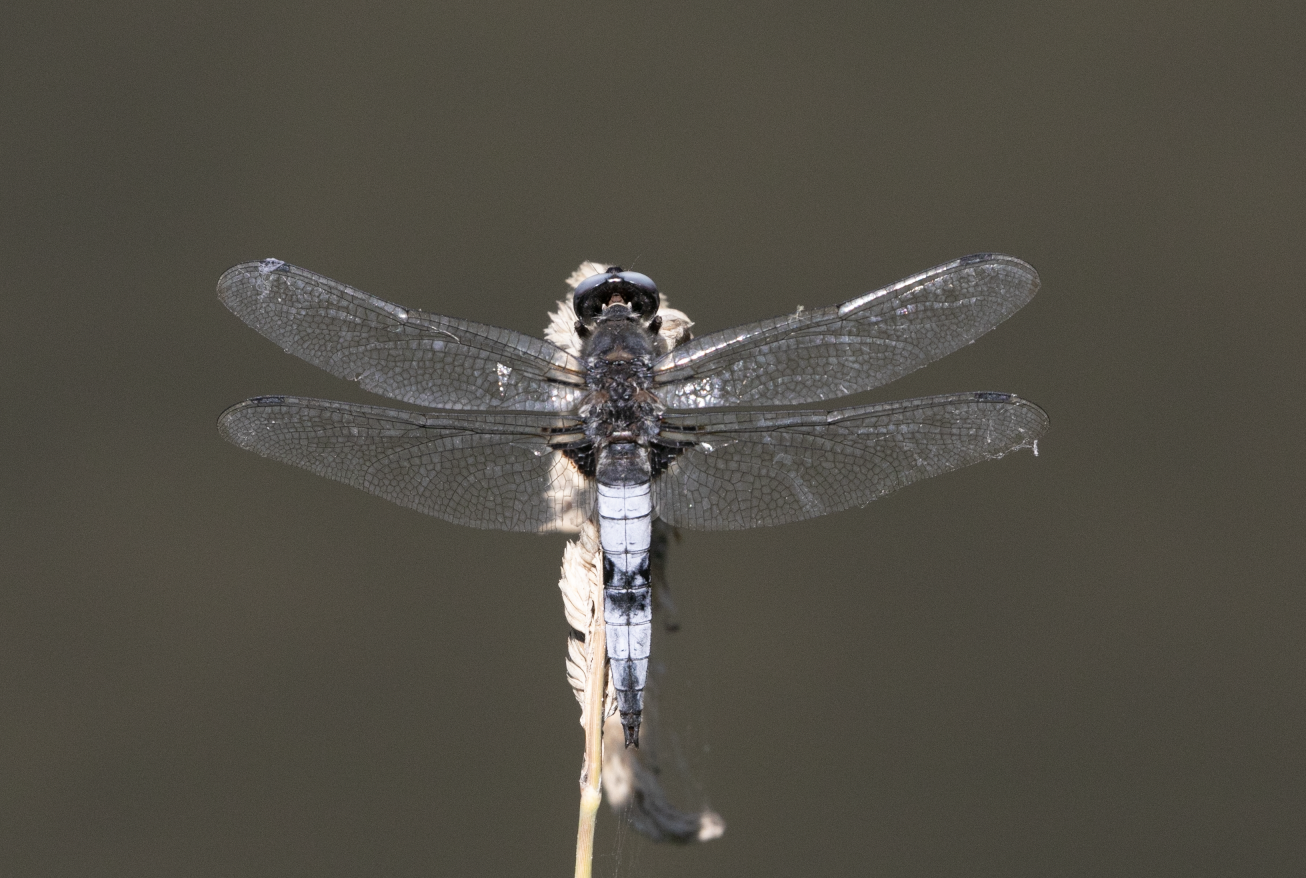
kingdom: Animalia
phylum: Arthropoda
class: Insecta
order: Odonata
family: Libellulidae
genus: Libellula
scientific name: Libellula fulva
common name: Blue chaser
